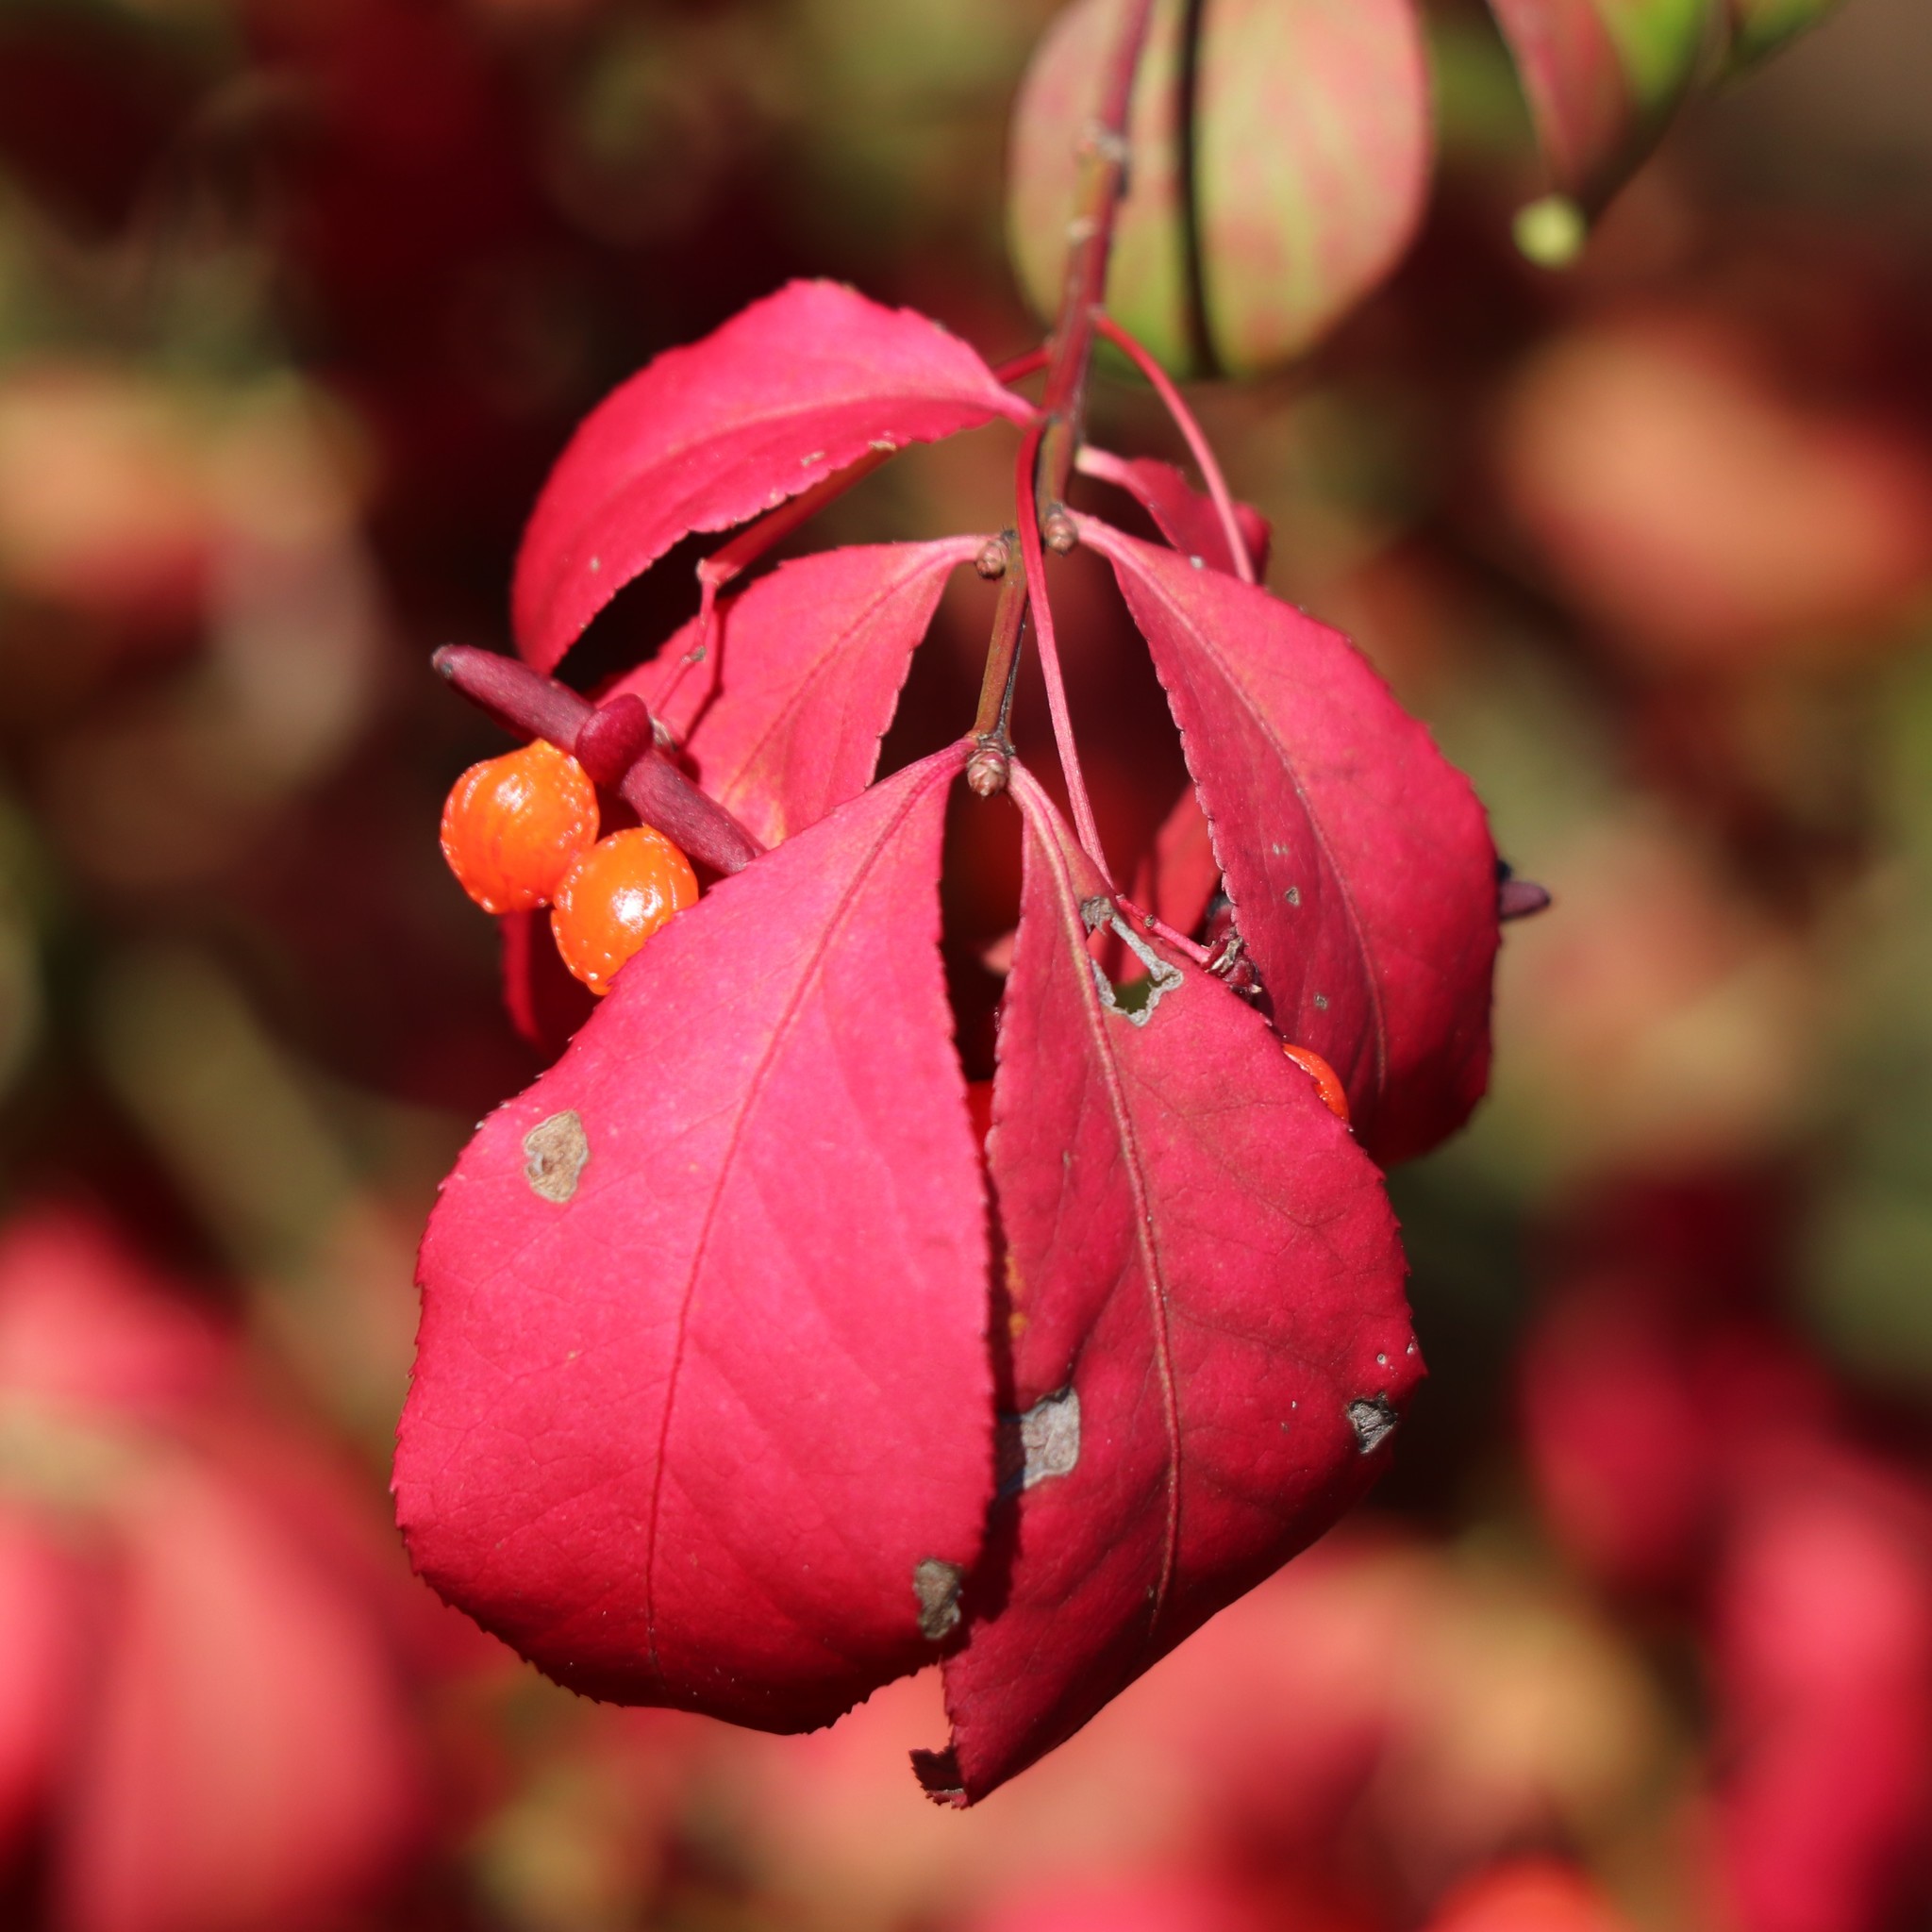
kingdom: Plantae
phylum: Tracheophyta
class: Magnoliopsida
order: Celastrales
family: Celastraceae
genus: Euonymus
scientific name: Euonymus alatus
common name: Winged euonymus
